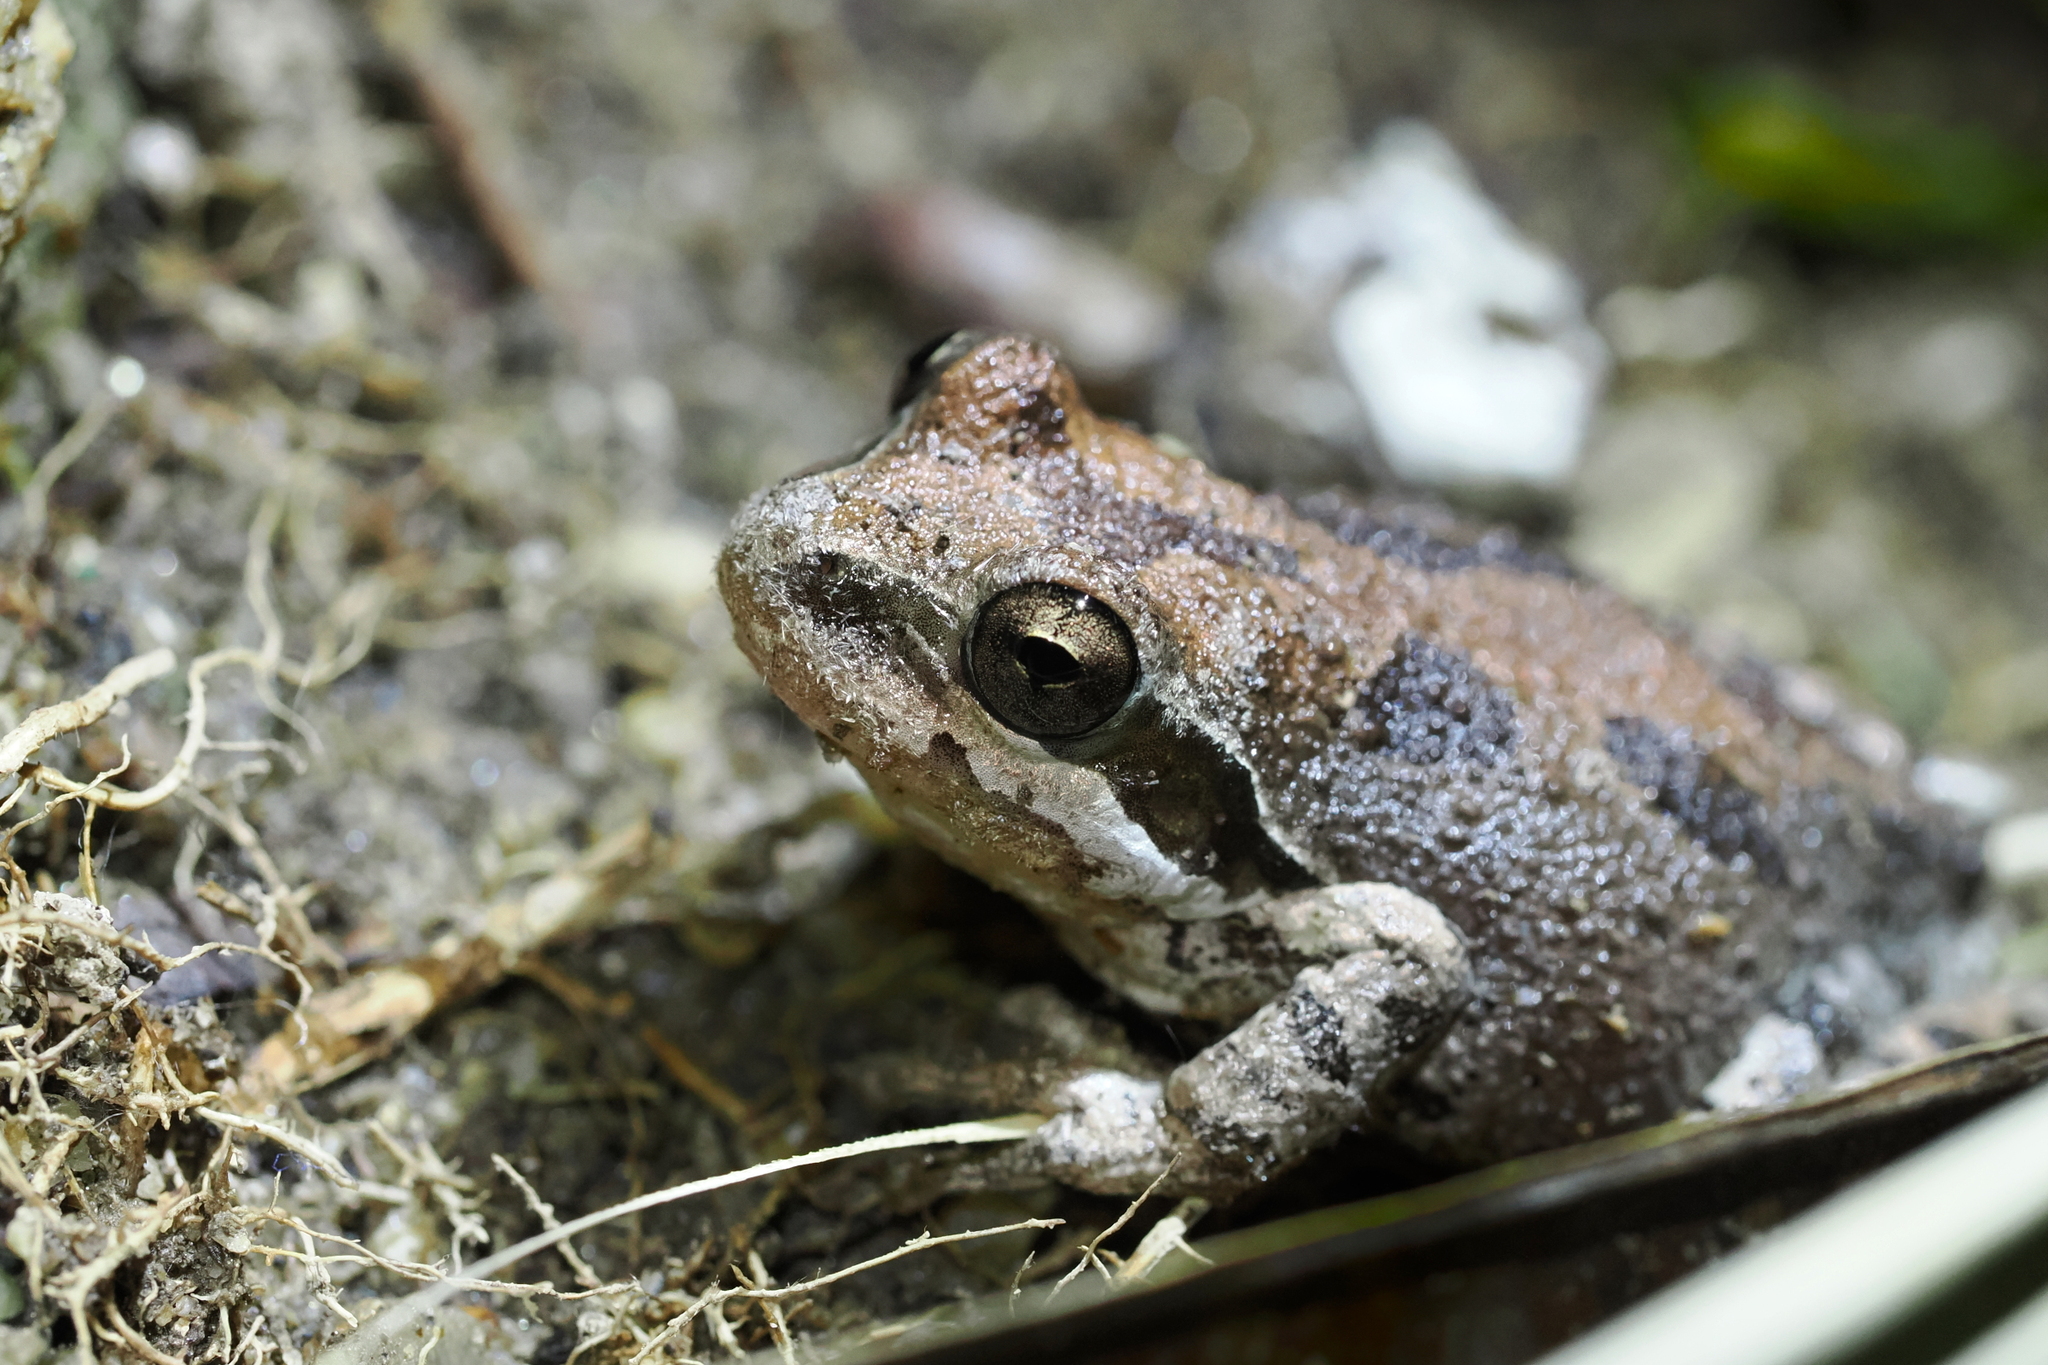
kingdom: Animalia
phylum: Chordata
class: Amphibia
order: Anura
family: Hylidae
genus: Pseudacris
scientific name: Pseudacris regilla
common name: Pacific chorus frog
